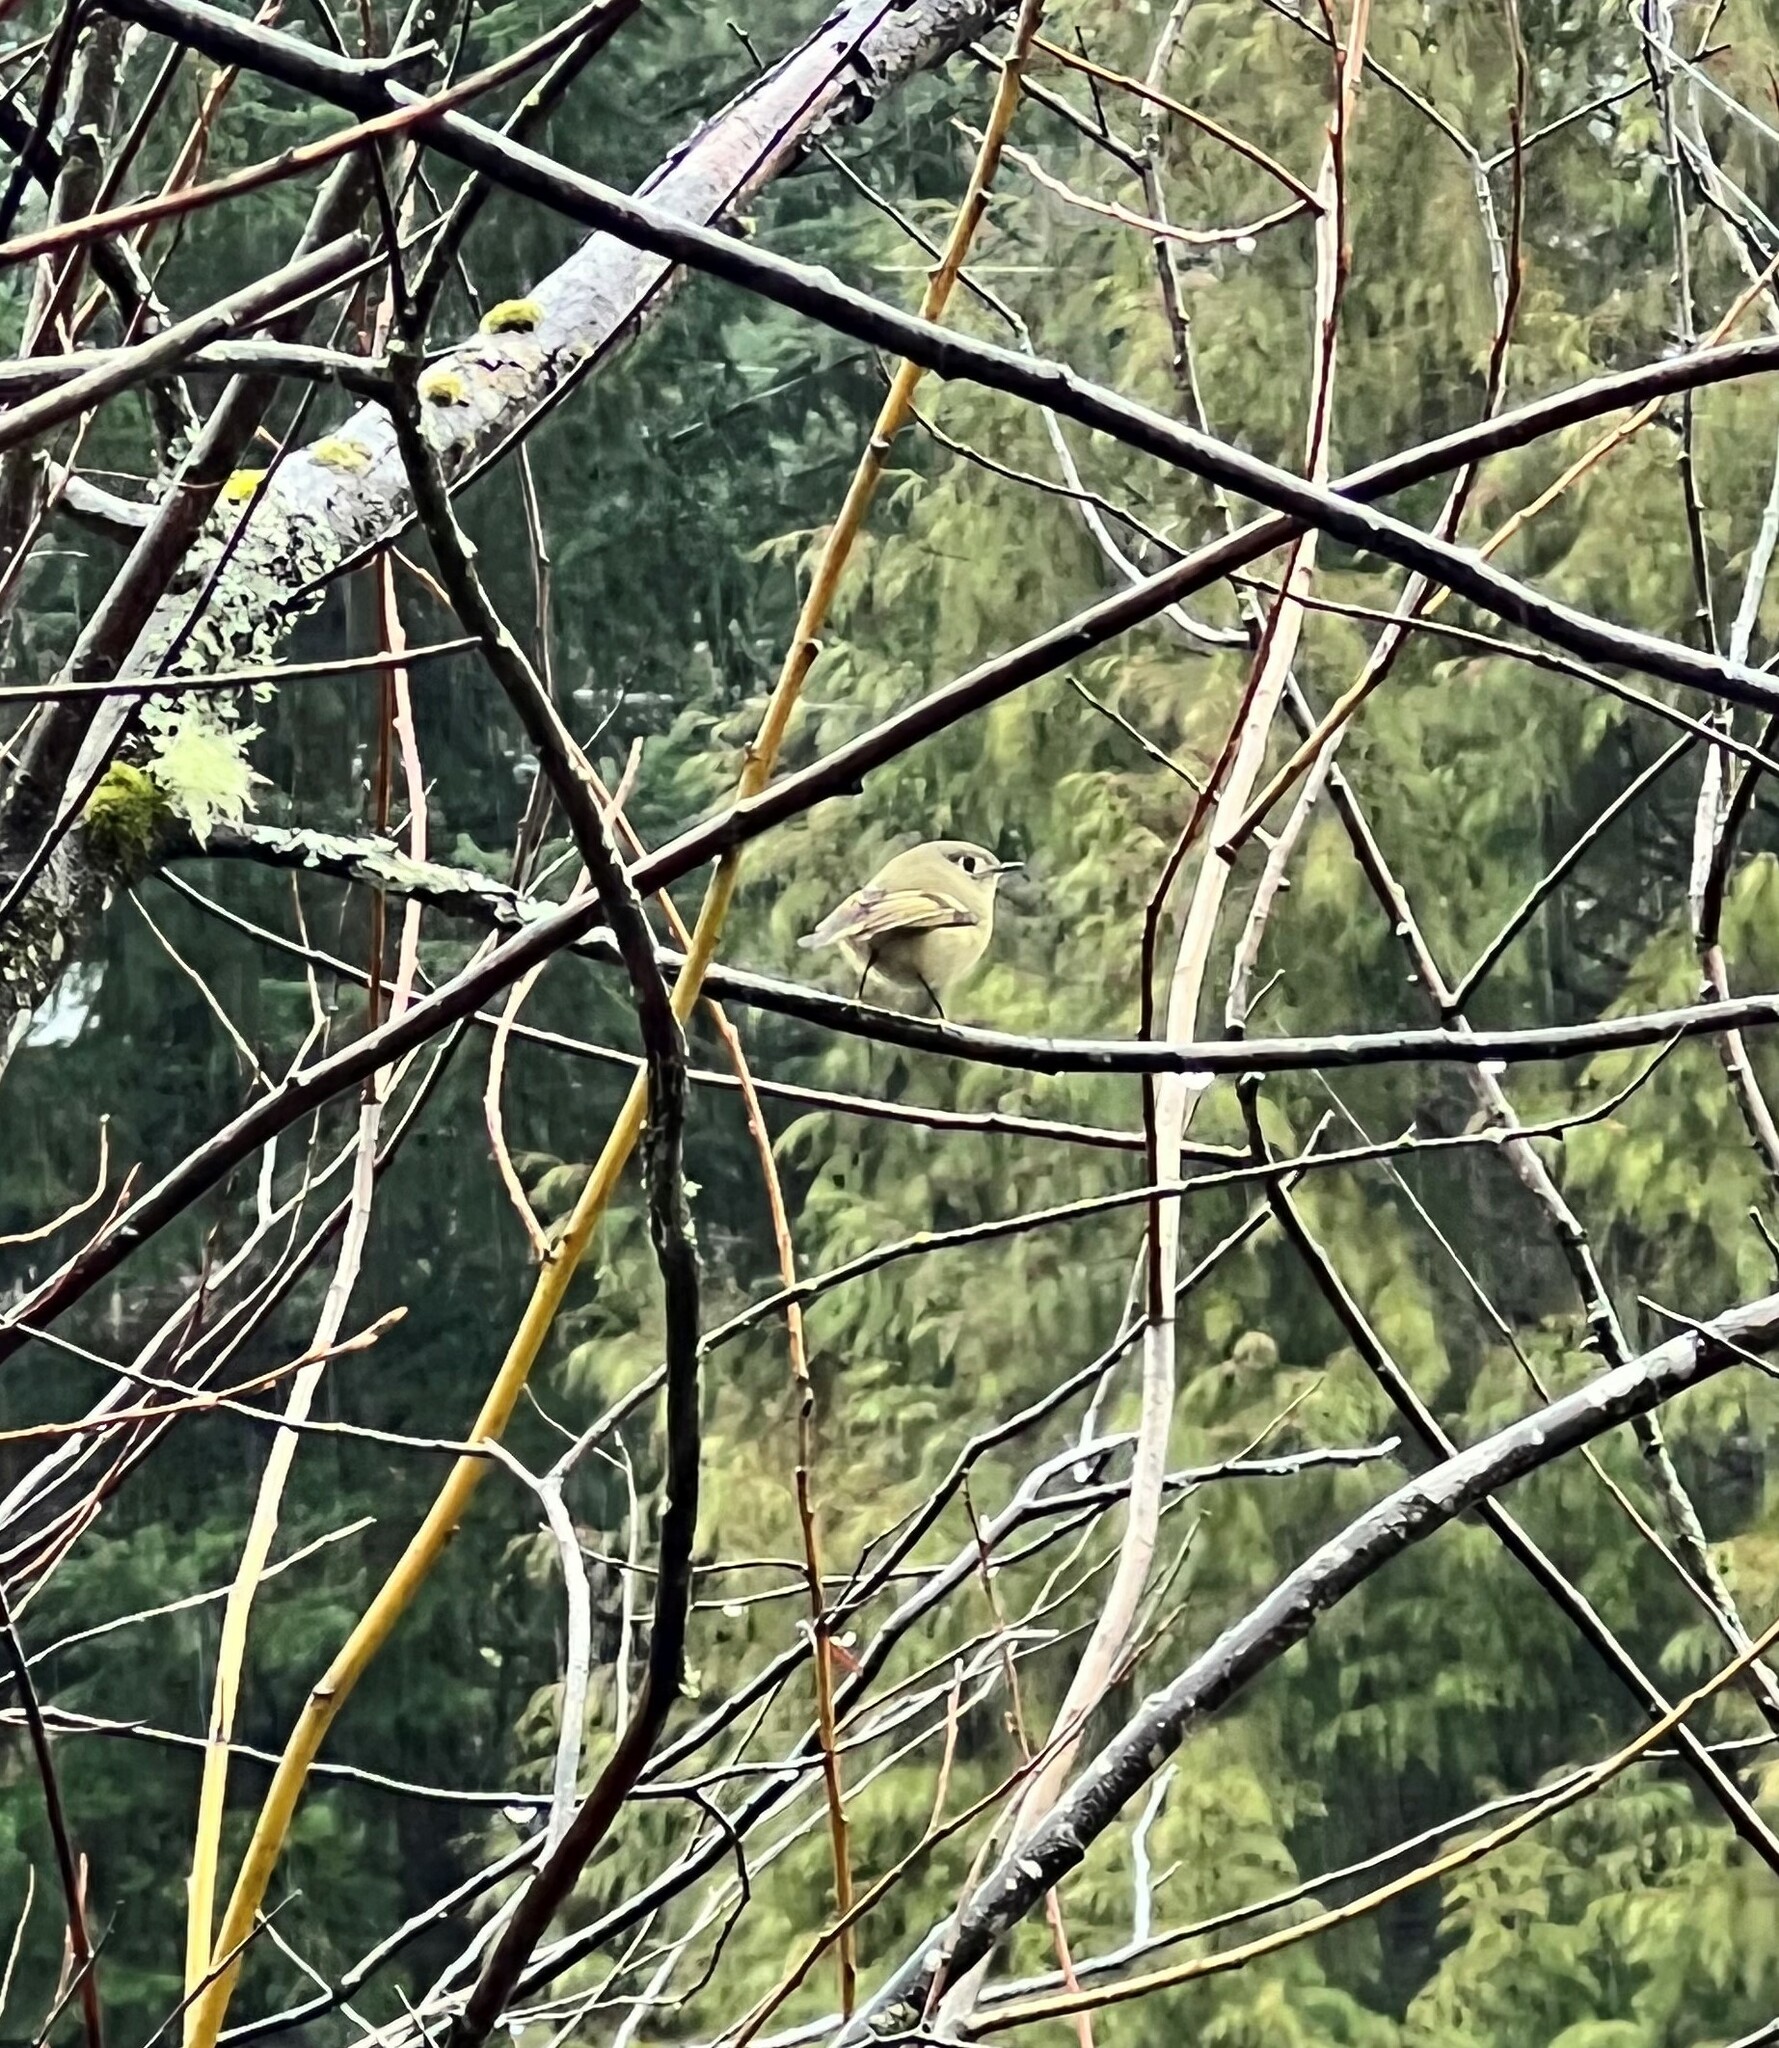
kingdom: Animalia
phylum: Chordata
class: Aves
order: Passeriformes
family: Regulidae
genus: Regulus
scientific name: Regulus calendula
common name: Ruby-crowned kinglet
